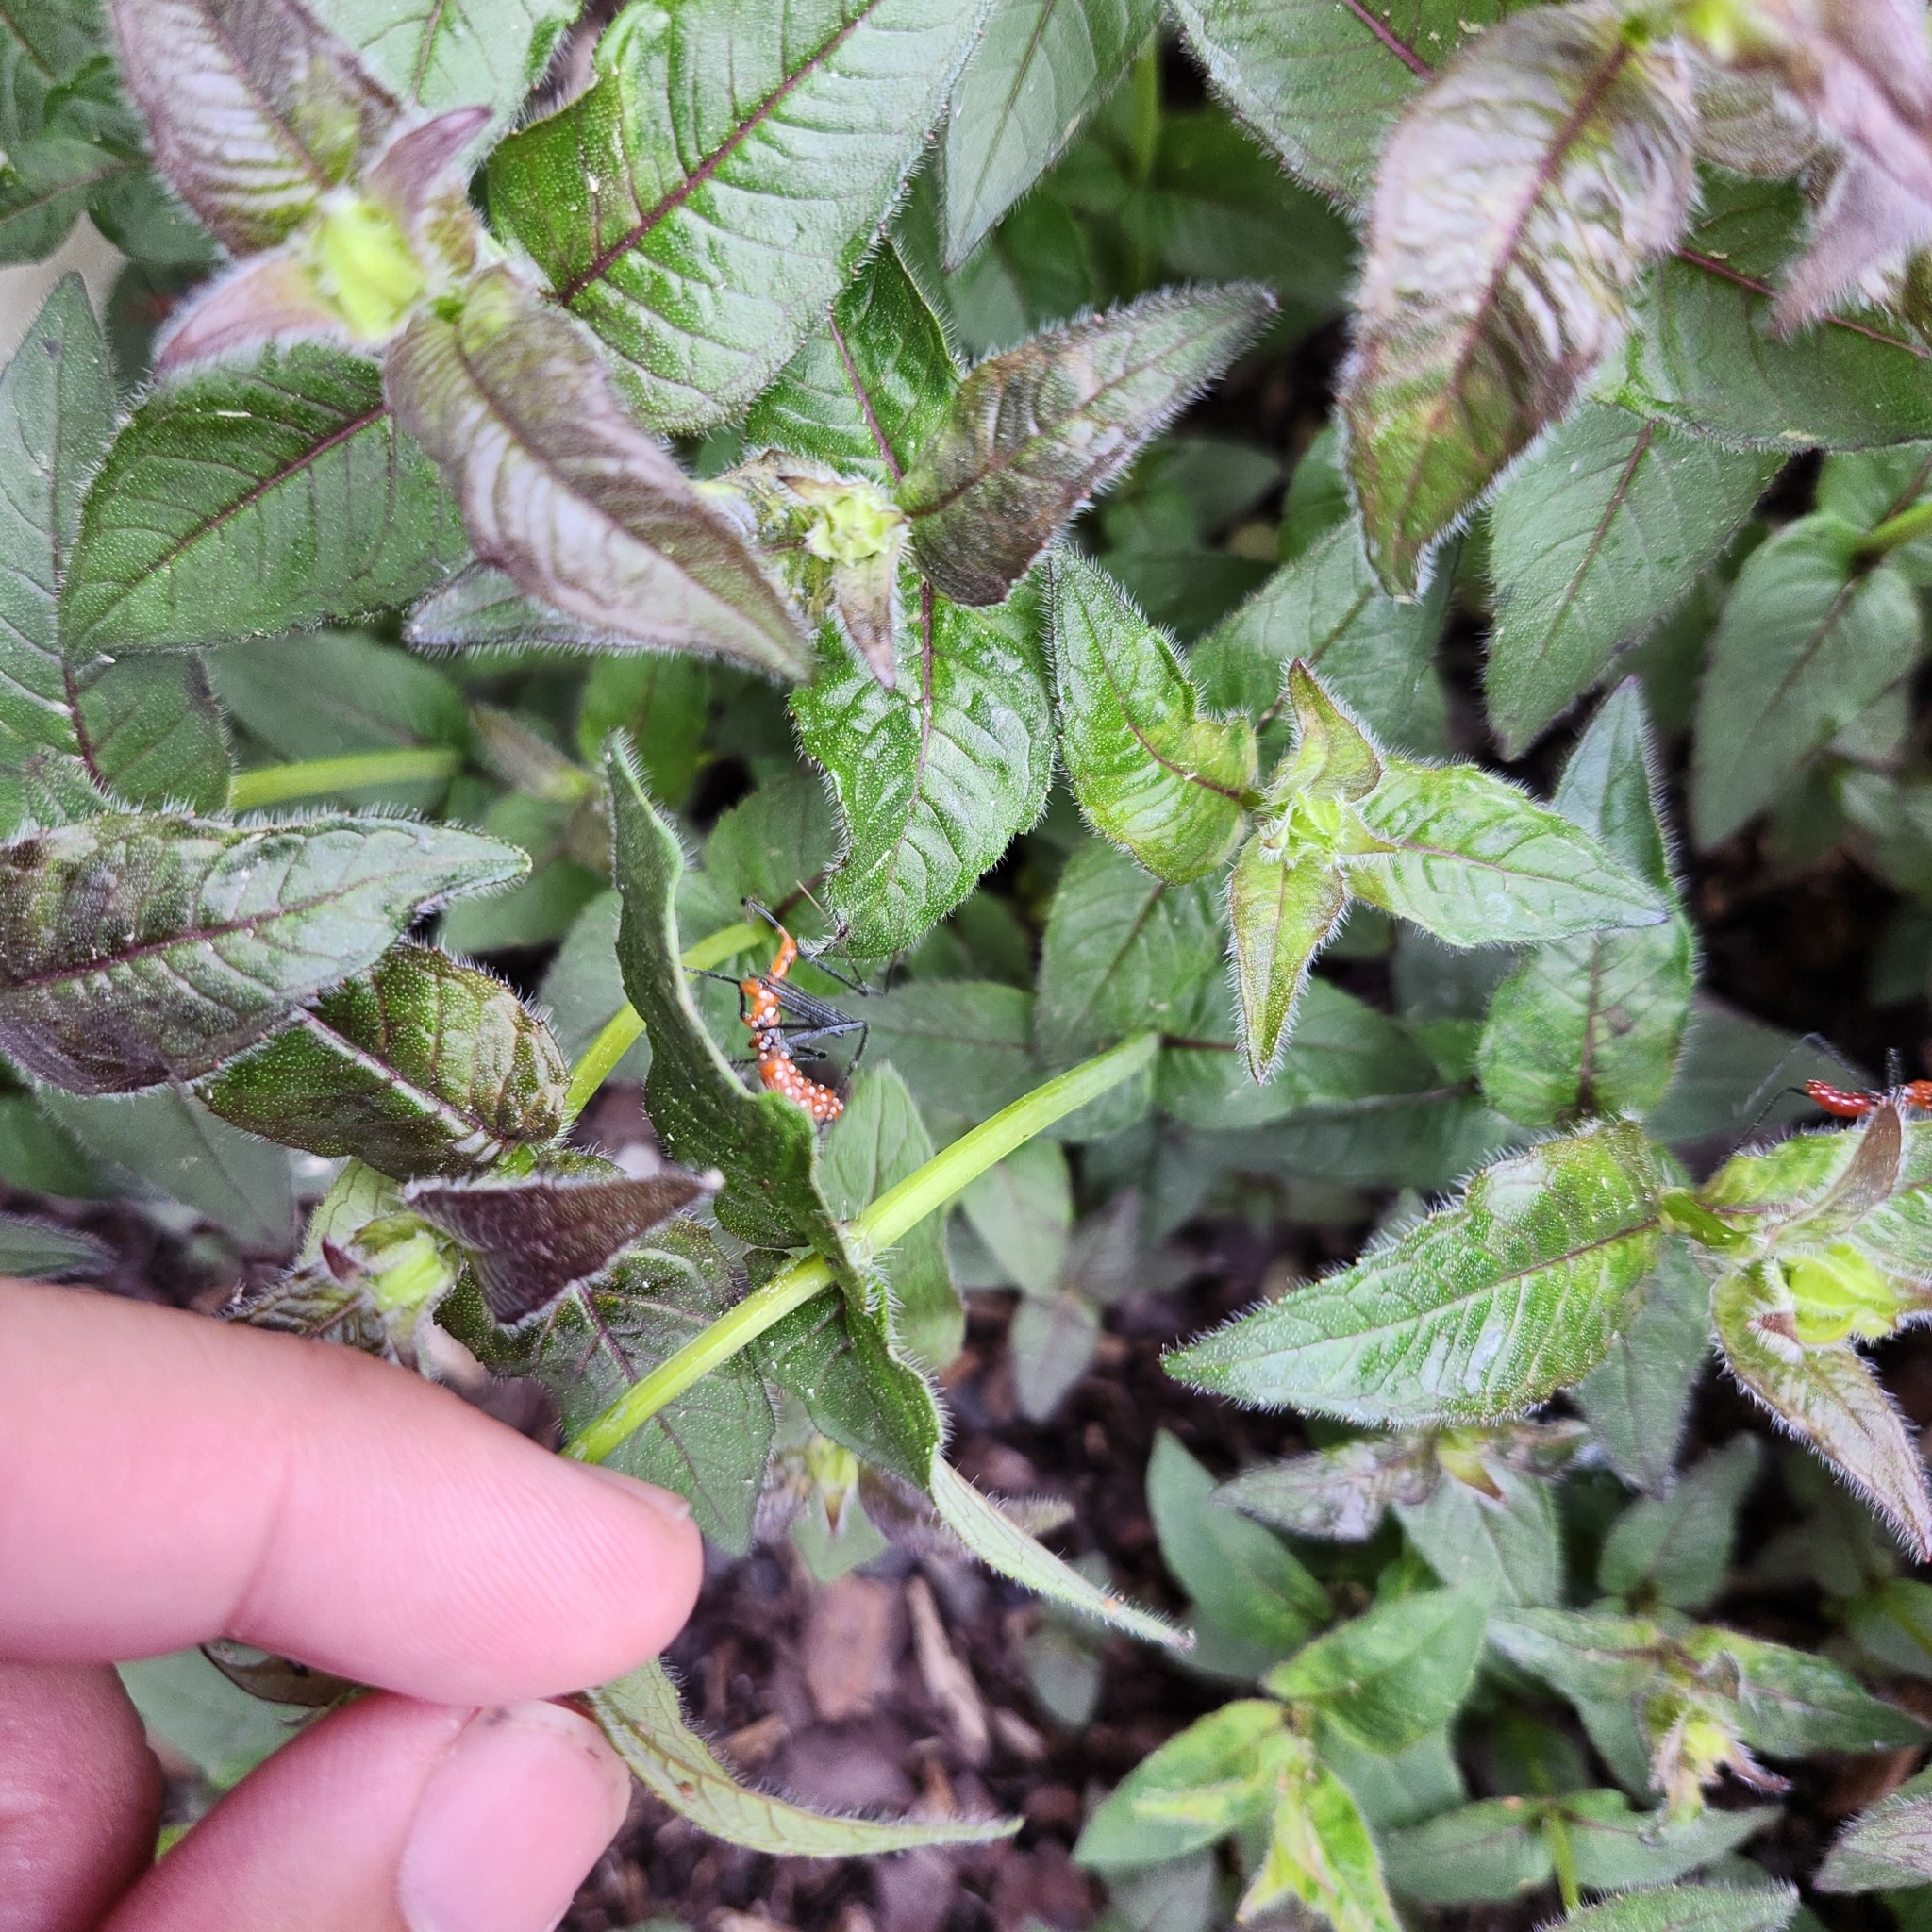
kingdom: Animalia
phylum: Arthropoda
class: Insecta
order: Hemiptera
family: Reduviidae
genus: Zelus
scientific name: Zelus longipes
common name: Milkweed assassin bug
